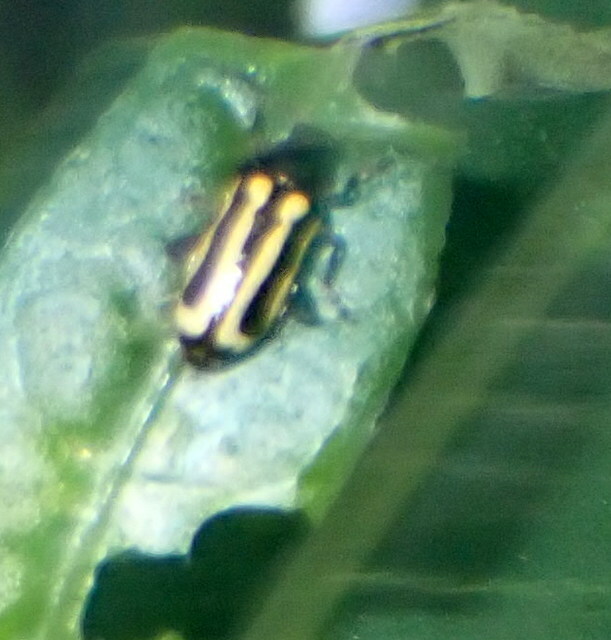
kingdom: Animalia
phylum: Arthropoda
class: Insecta
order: Coleoptera
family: Chrysomelidae
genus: Agasicles
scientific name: Agasicles hygrophila
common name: Alligatorweed flea beetle
